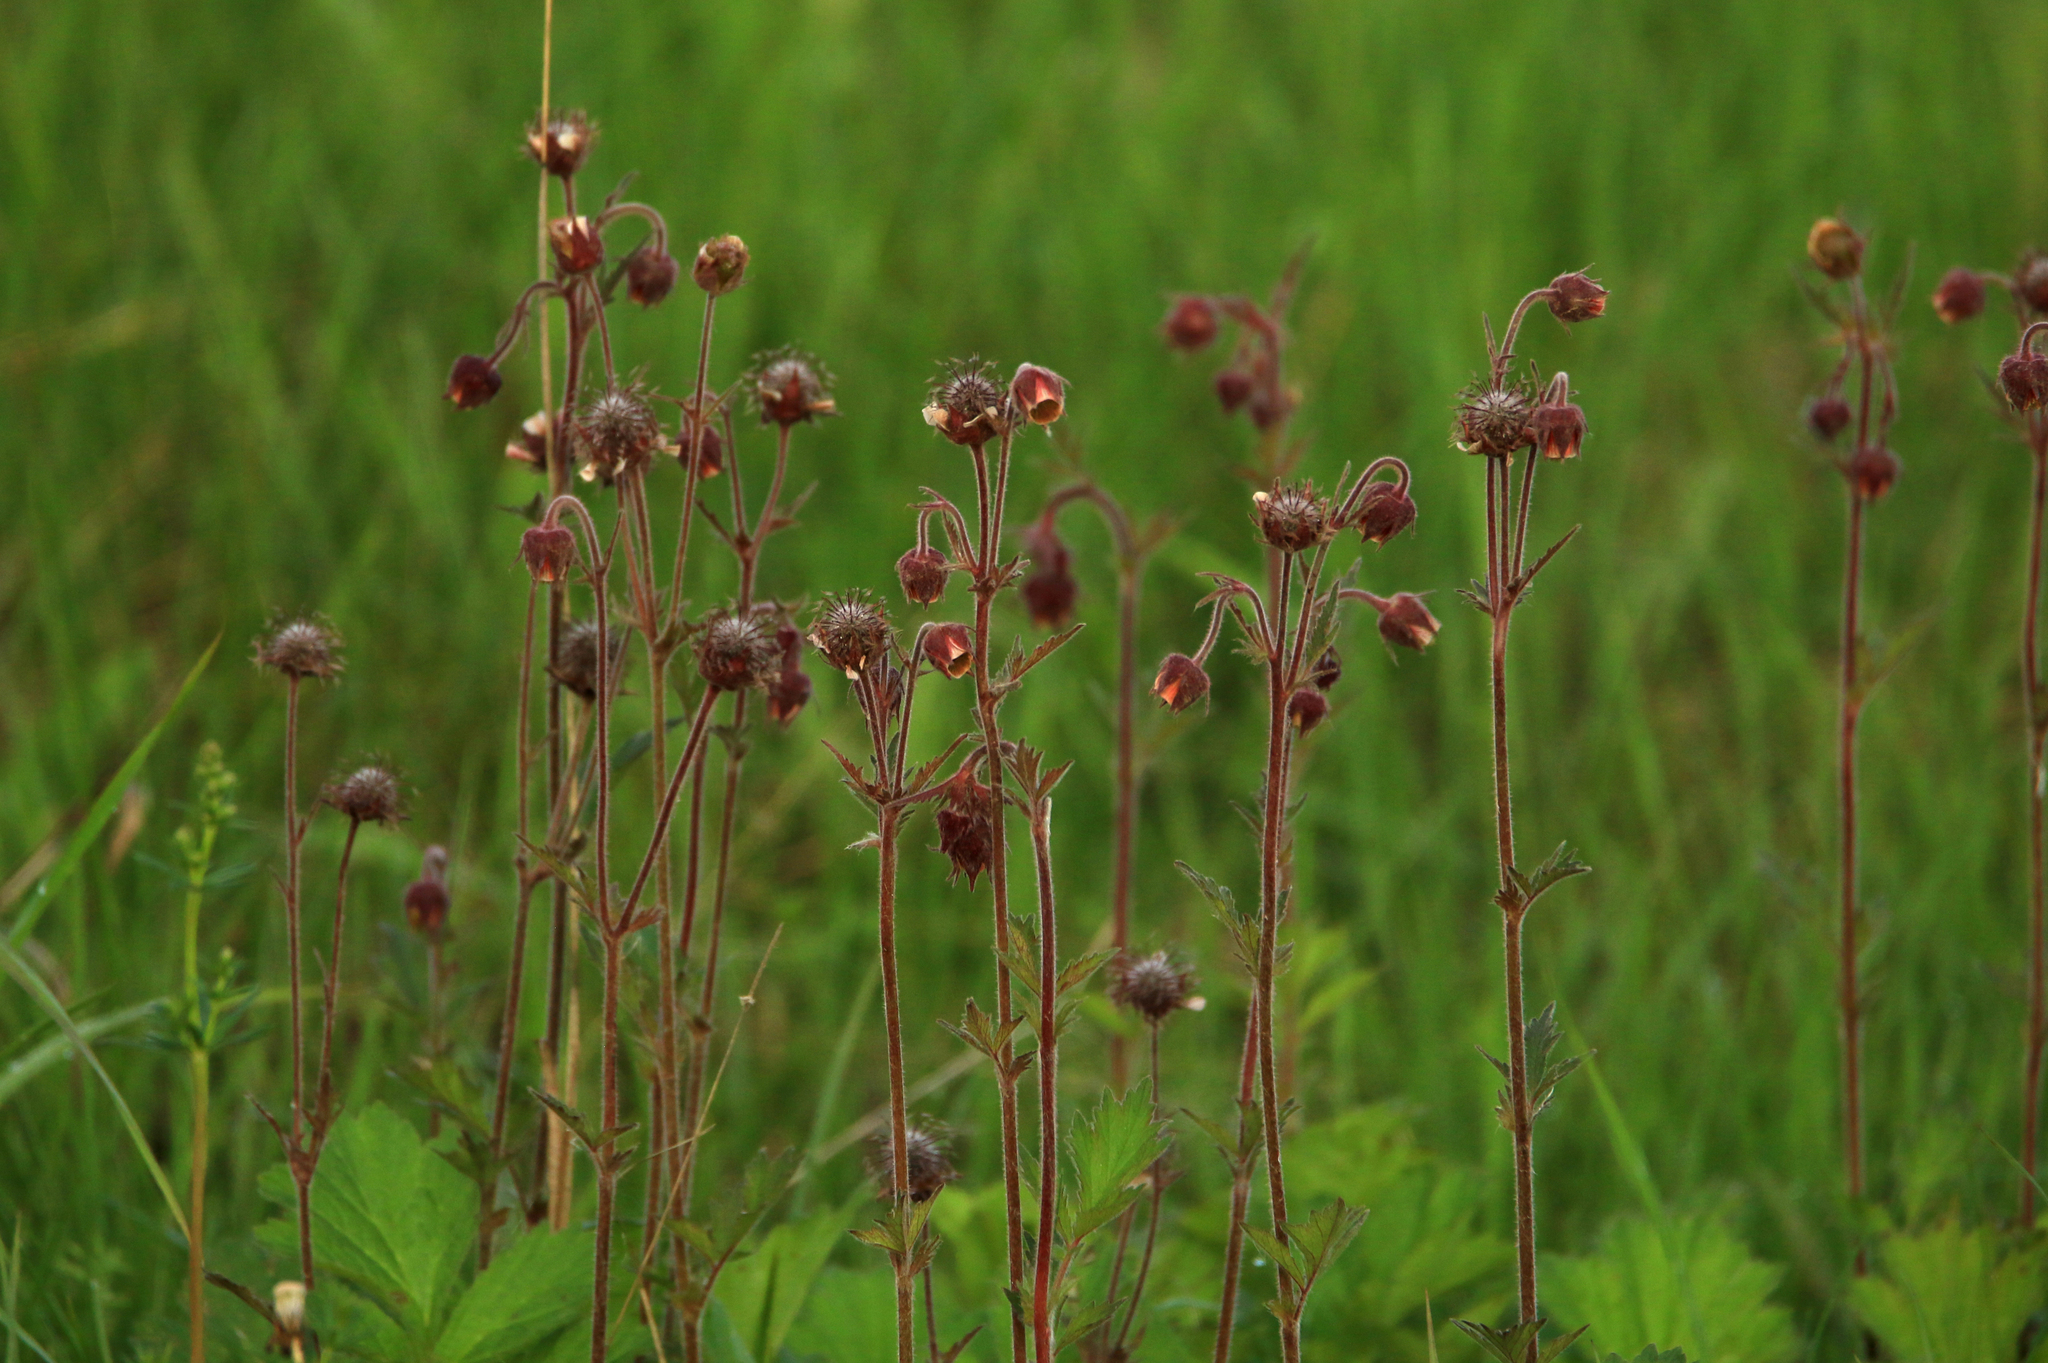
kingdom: Plantae
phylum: Tracheophyta
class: Magnoliopsida
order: Rosales
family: Rosaceae
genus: Geum
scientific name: Geum rivale
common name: Water avens
